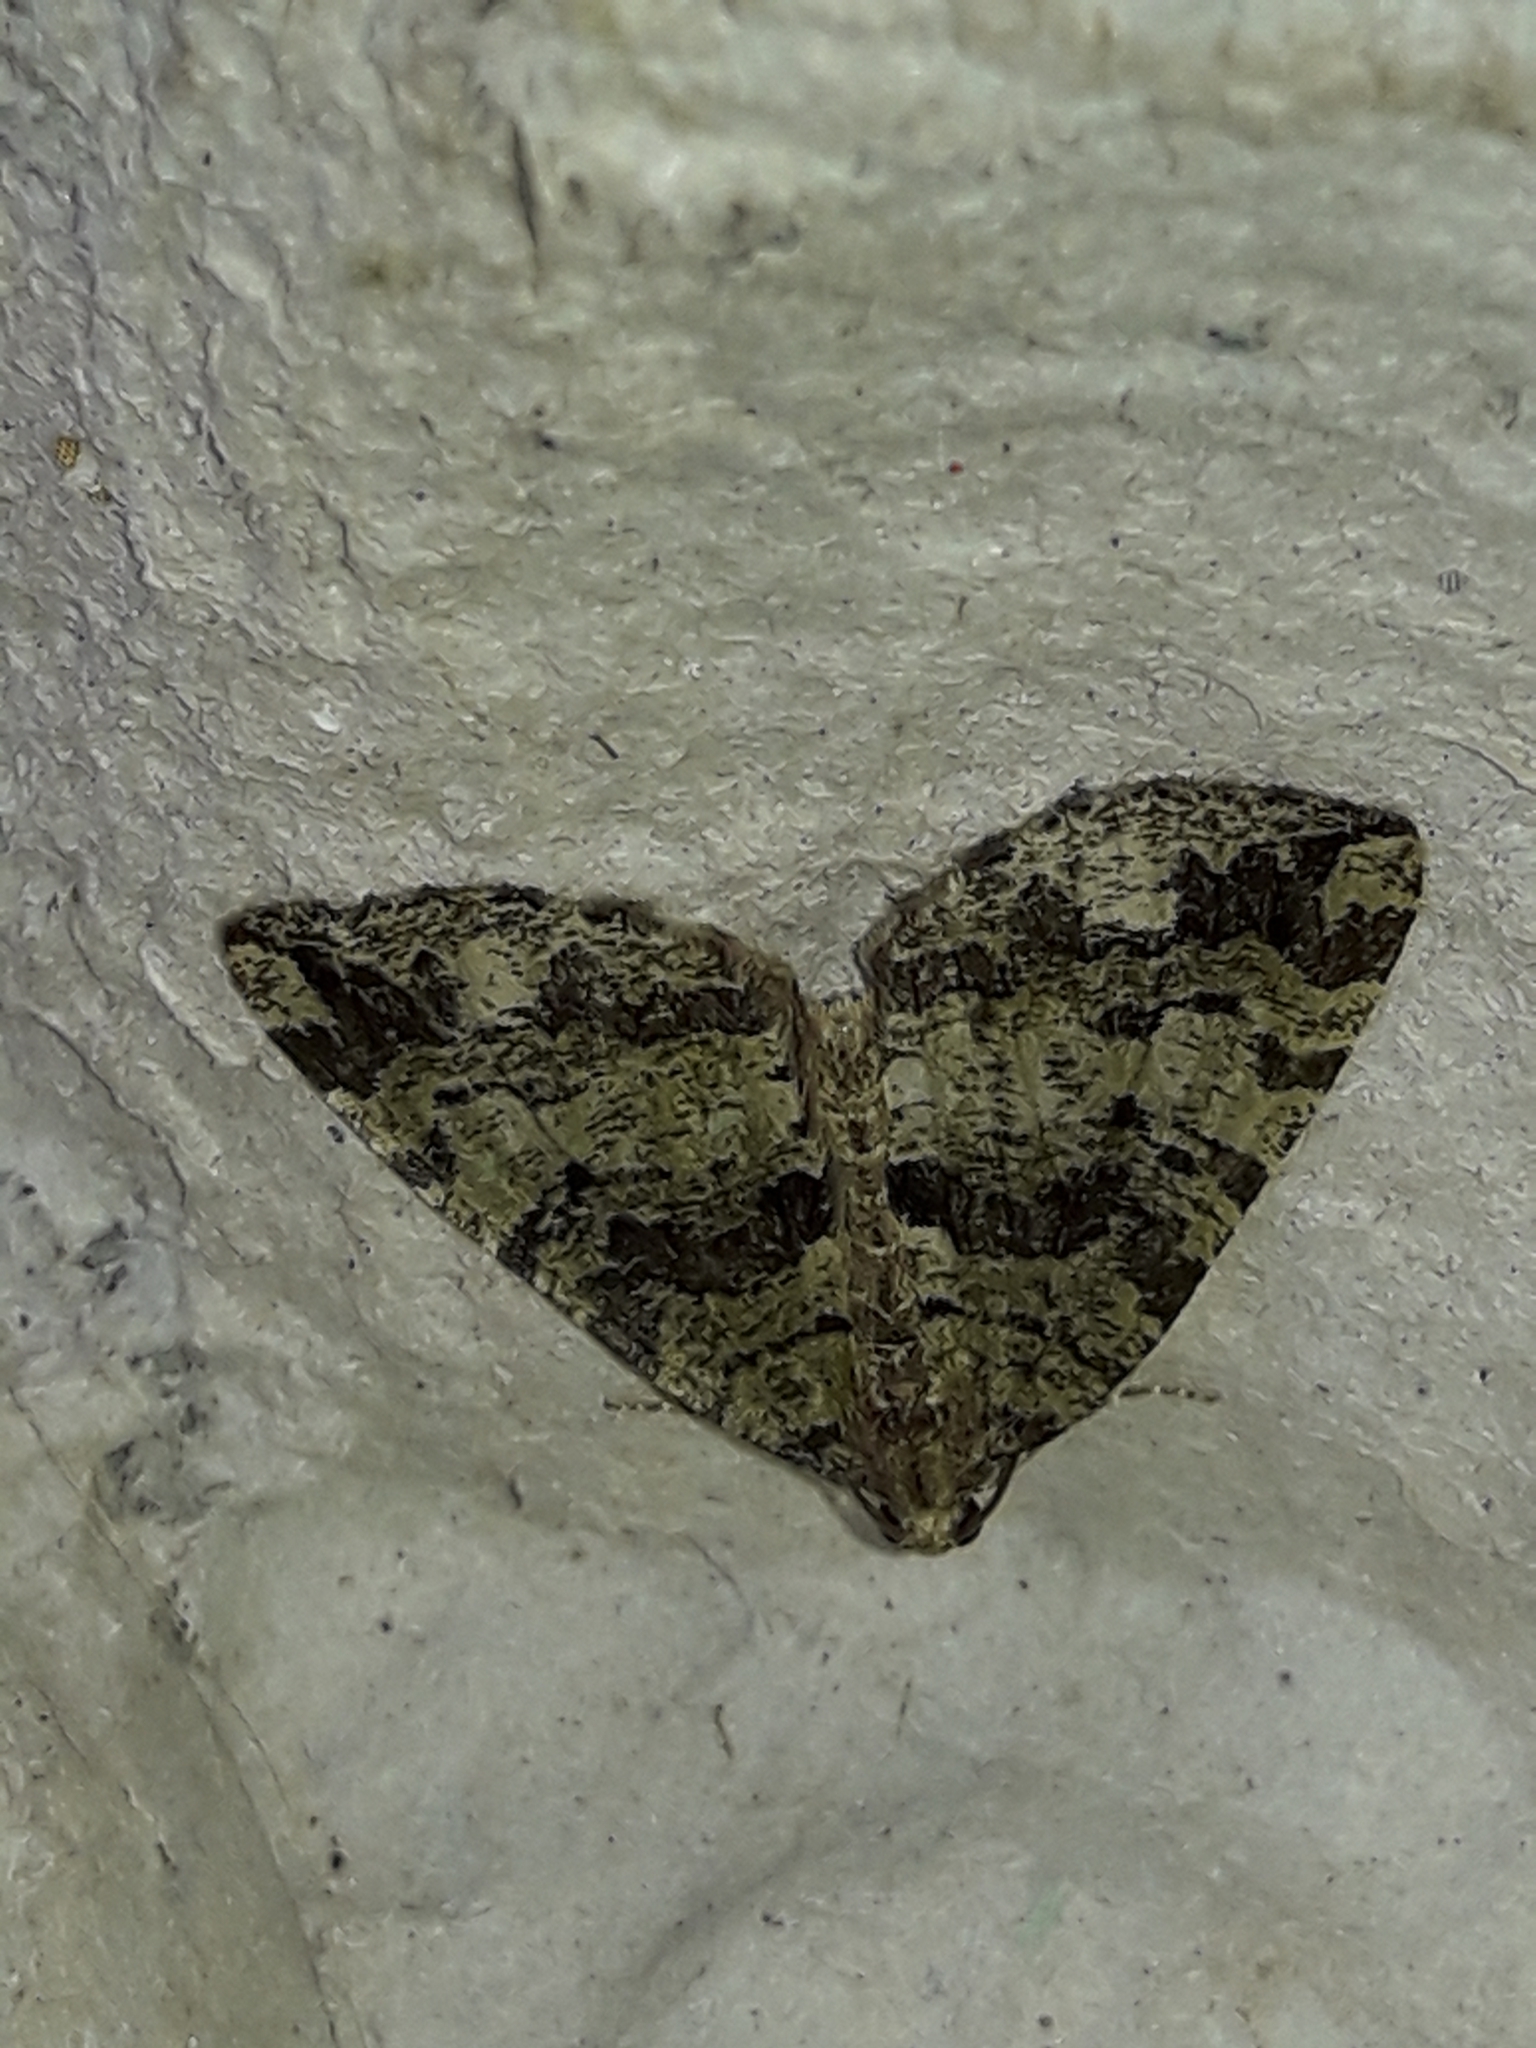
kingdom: Animalia
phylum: Arthropoda
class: Insecta
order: Lepidoptera
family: Geometridae
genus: Hydriomena
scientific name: Hydriomena furcata
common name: July highflyer
